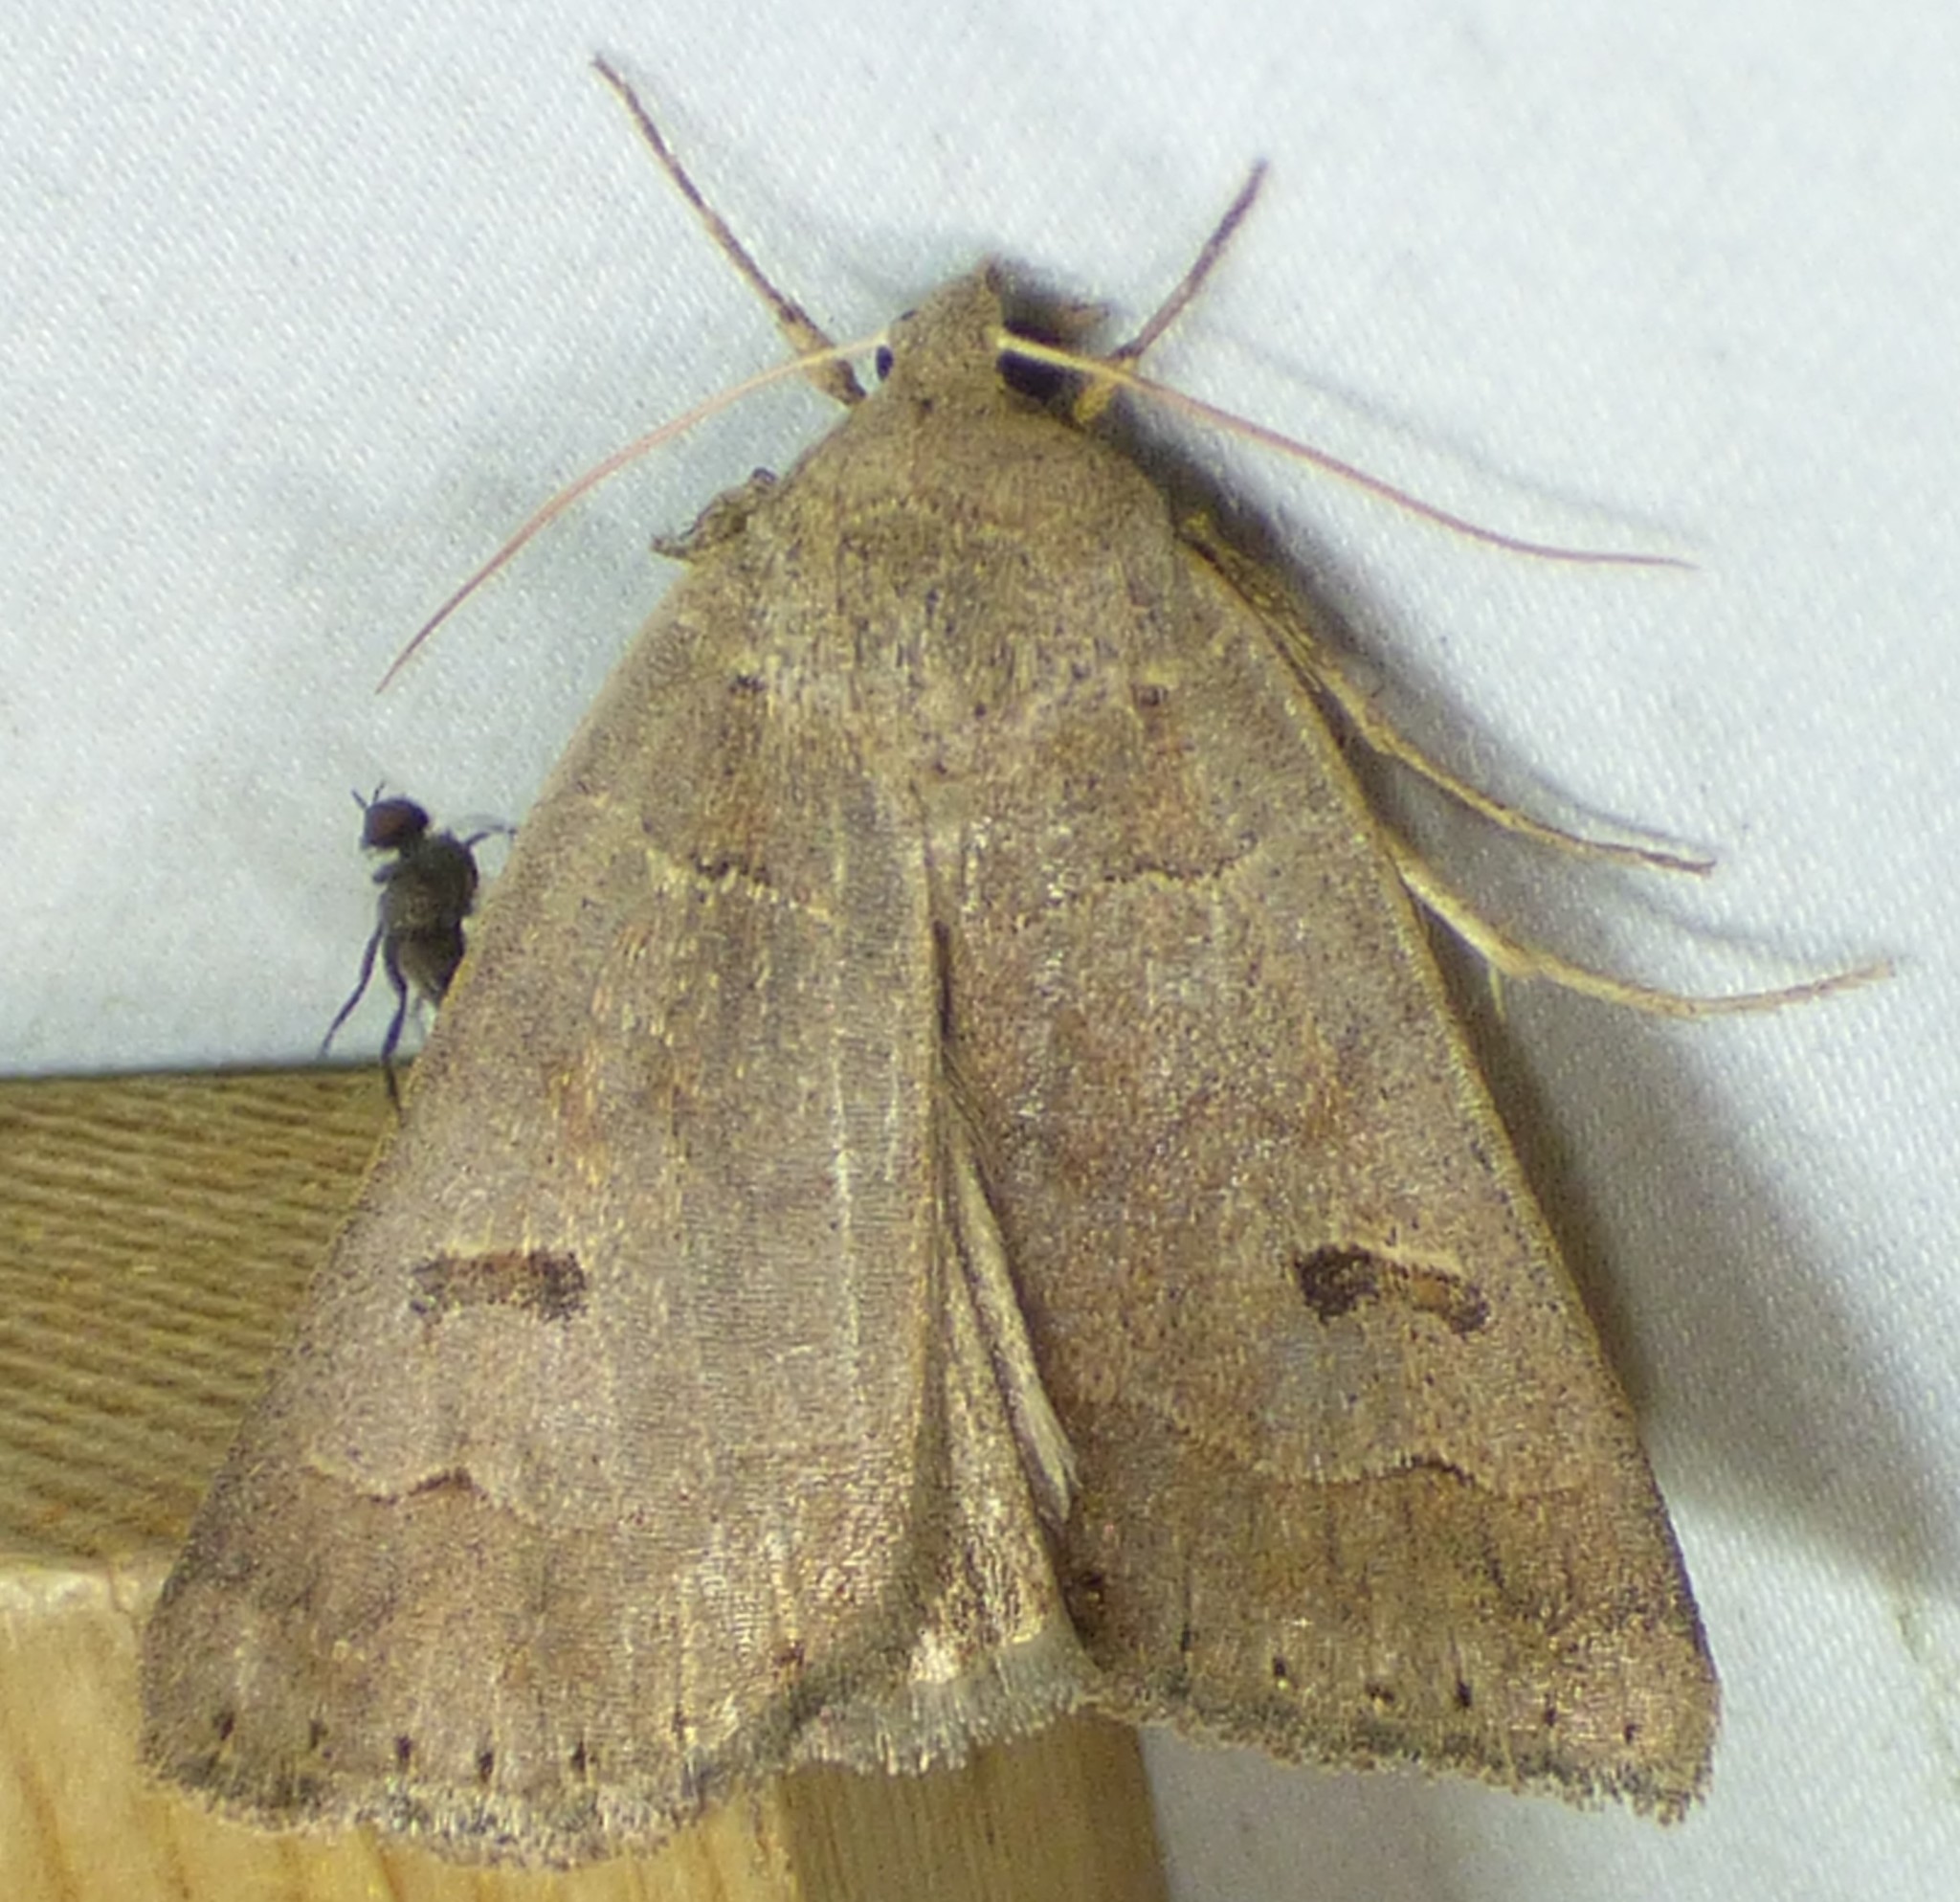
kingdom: Animalia
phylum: Arthropoda
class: Insecta
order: Lepidoptera
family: Erebidae
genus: Phoberia
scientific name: Phoberia atomaris
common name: Common oak moth
